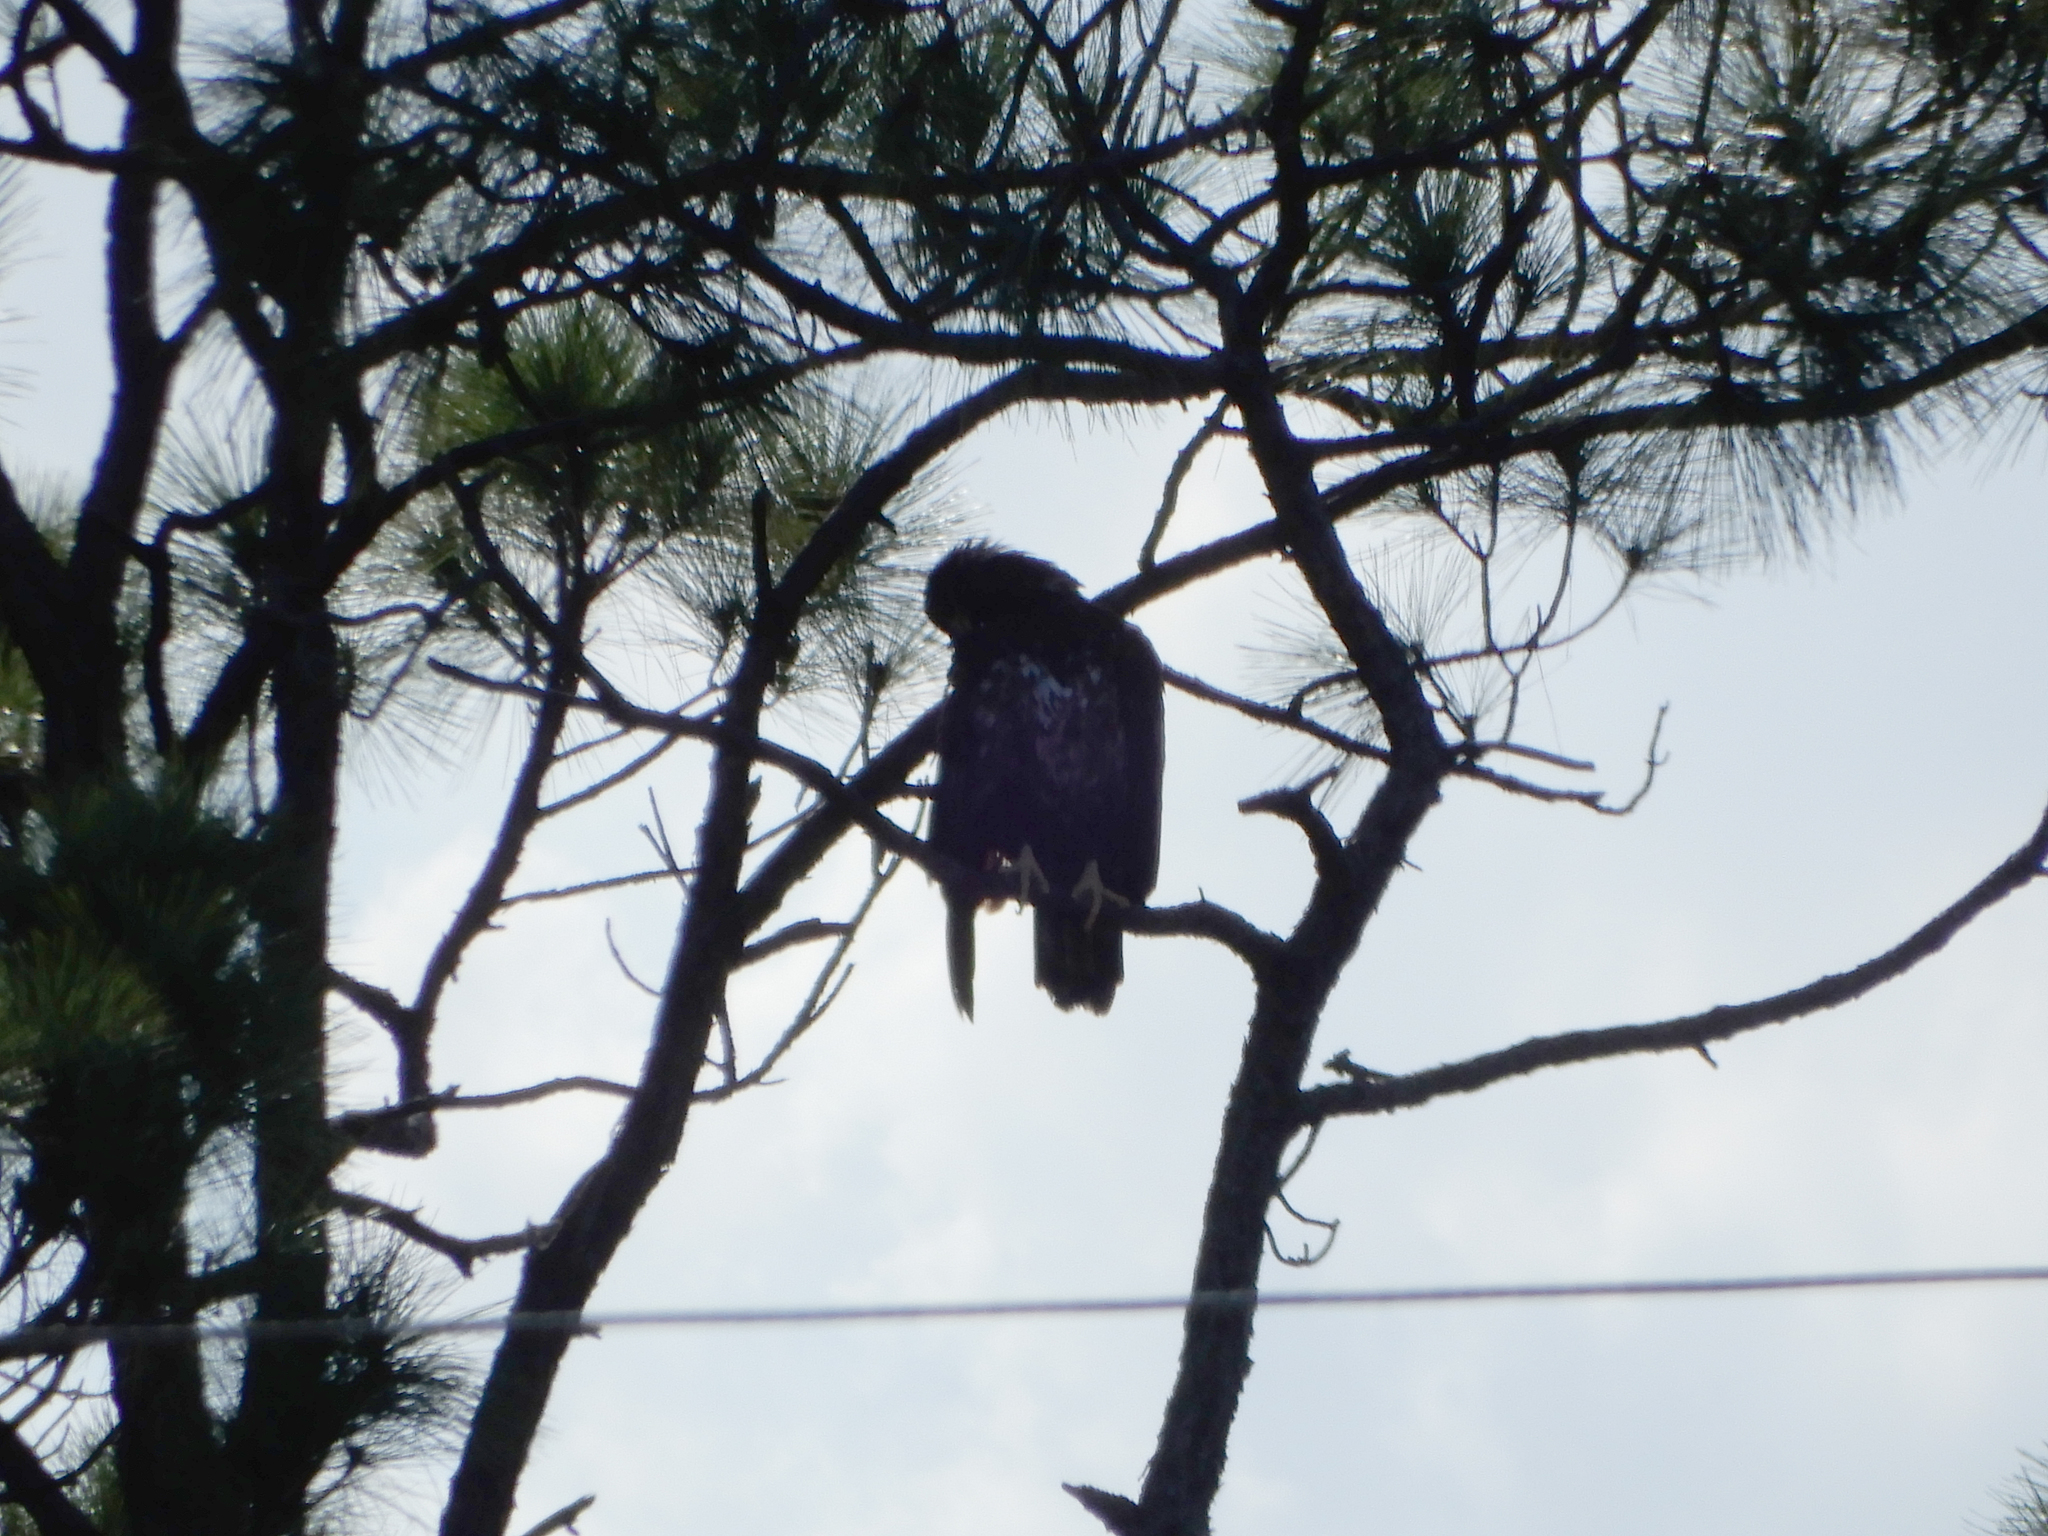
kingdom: Animalia
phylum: Chordata
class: Aves
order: Accipitriformes
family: Accipitridae
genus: Haliaeetus
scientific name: Haliaeetus leucocephalus
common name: Bald eagle
